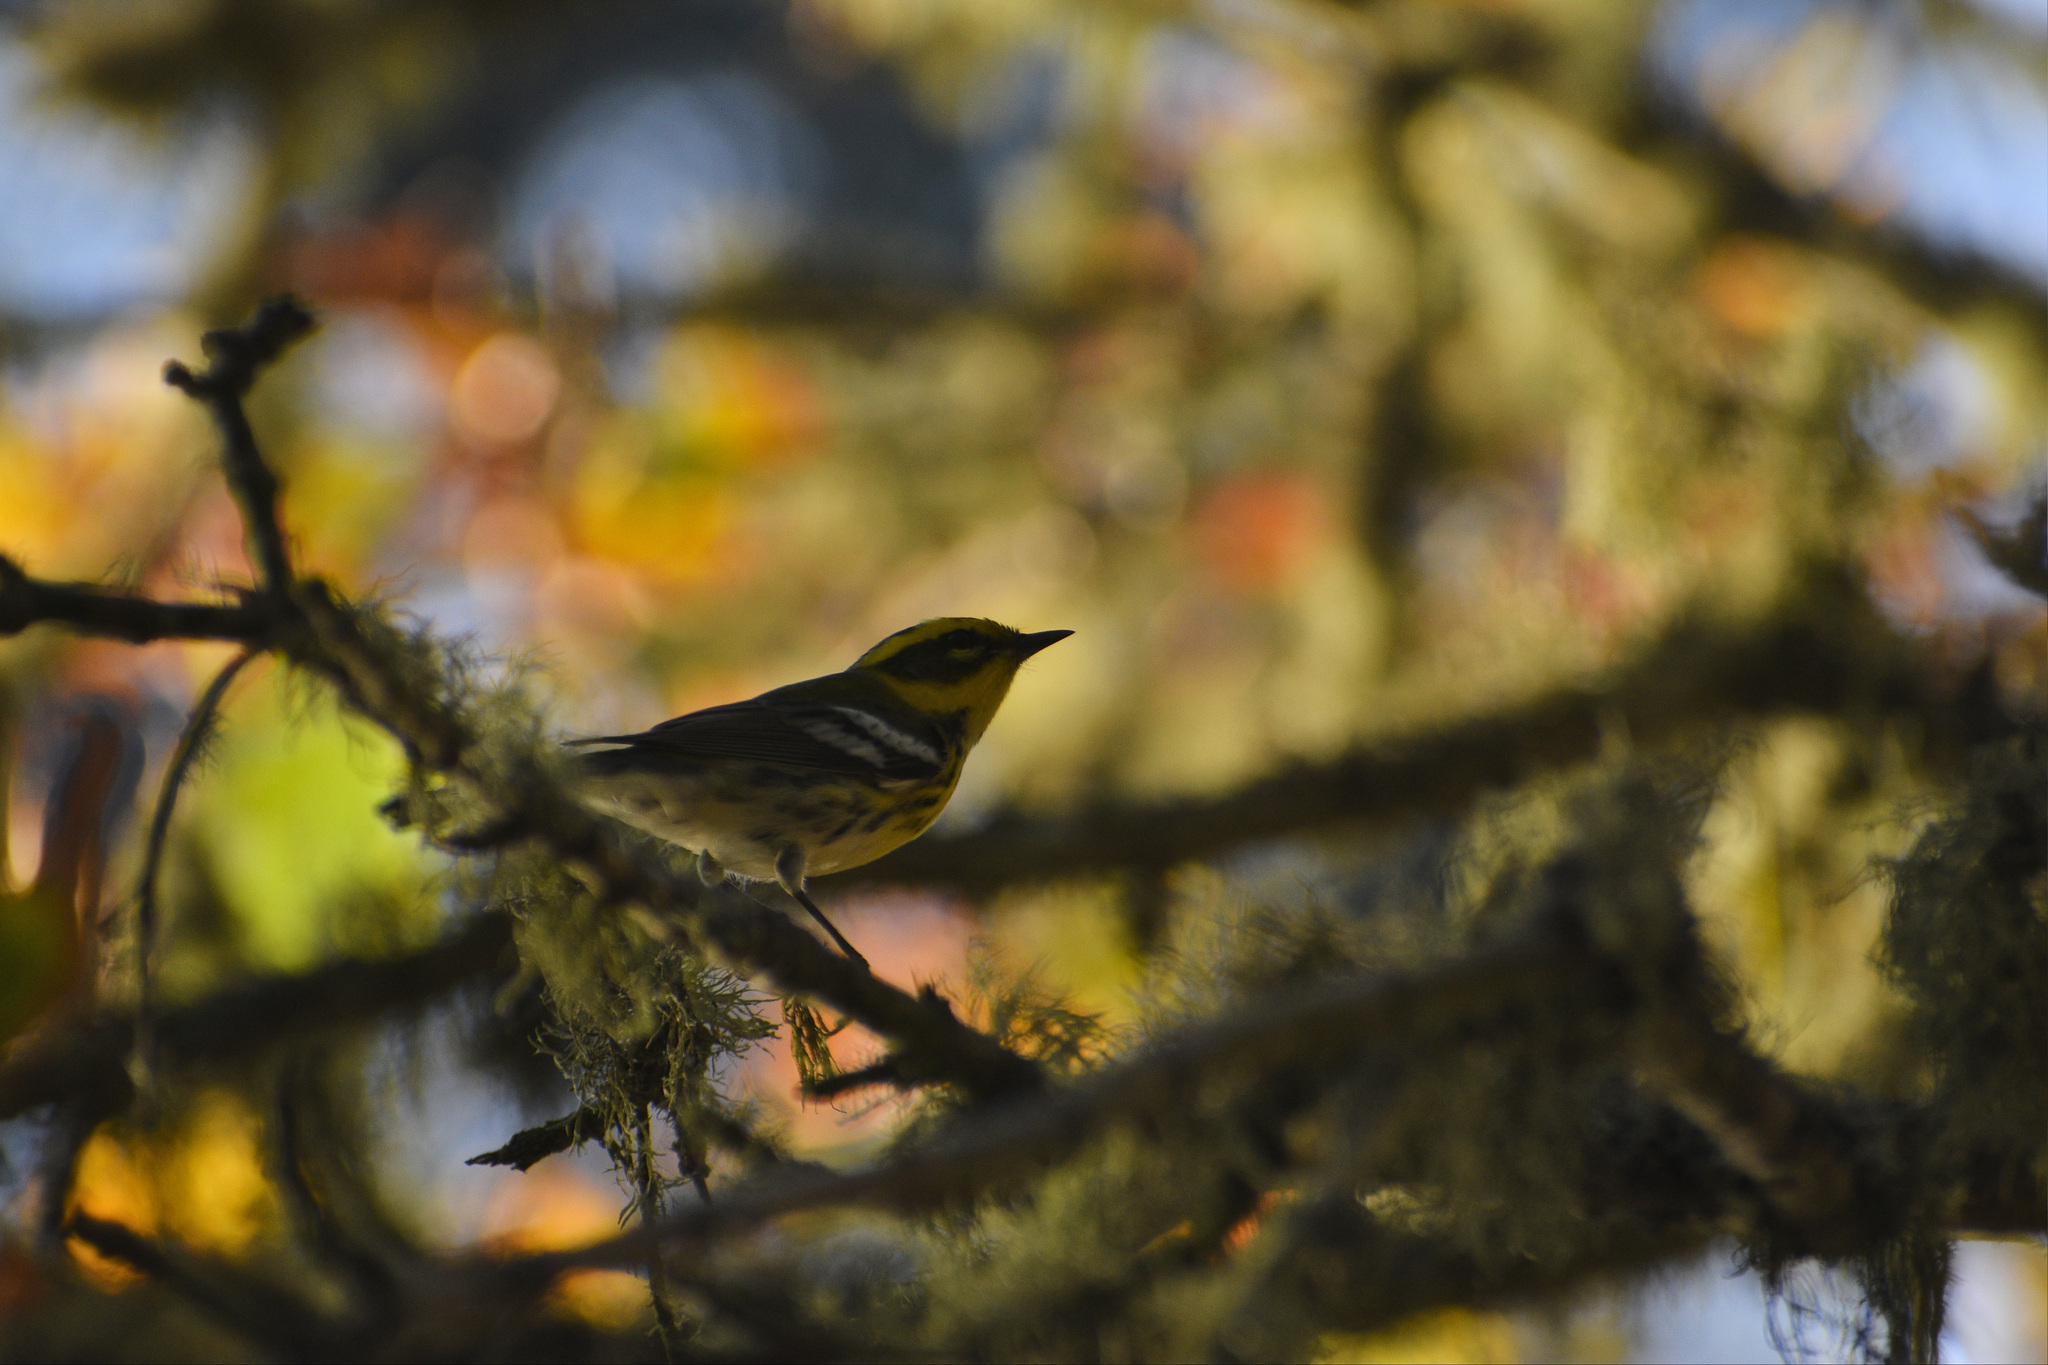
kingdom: Animalia
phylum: Chordata
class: Aves
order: Passeriformes
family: Parulidae
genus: Setophaga
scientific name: Setophaga townsendi
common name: Townsend's warbler
